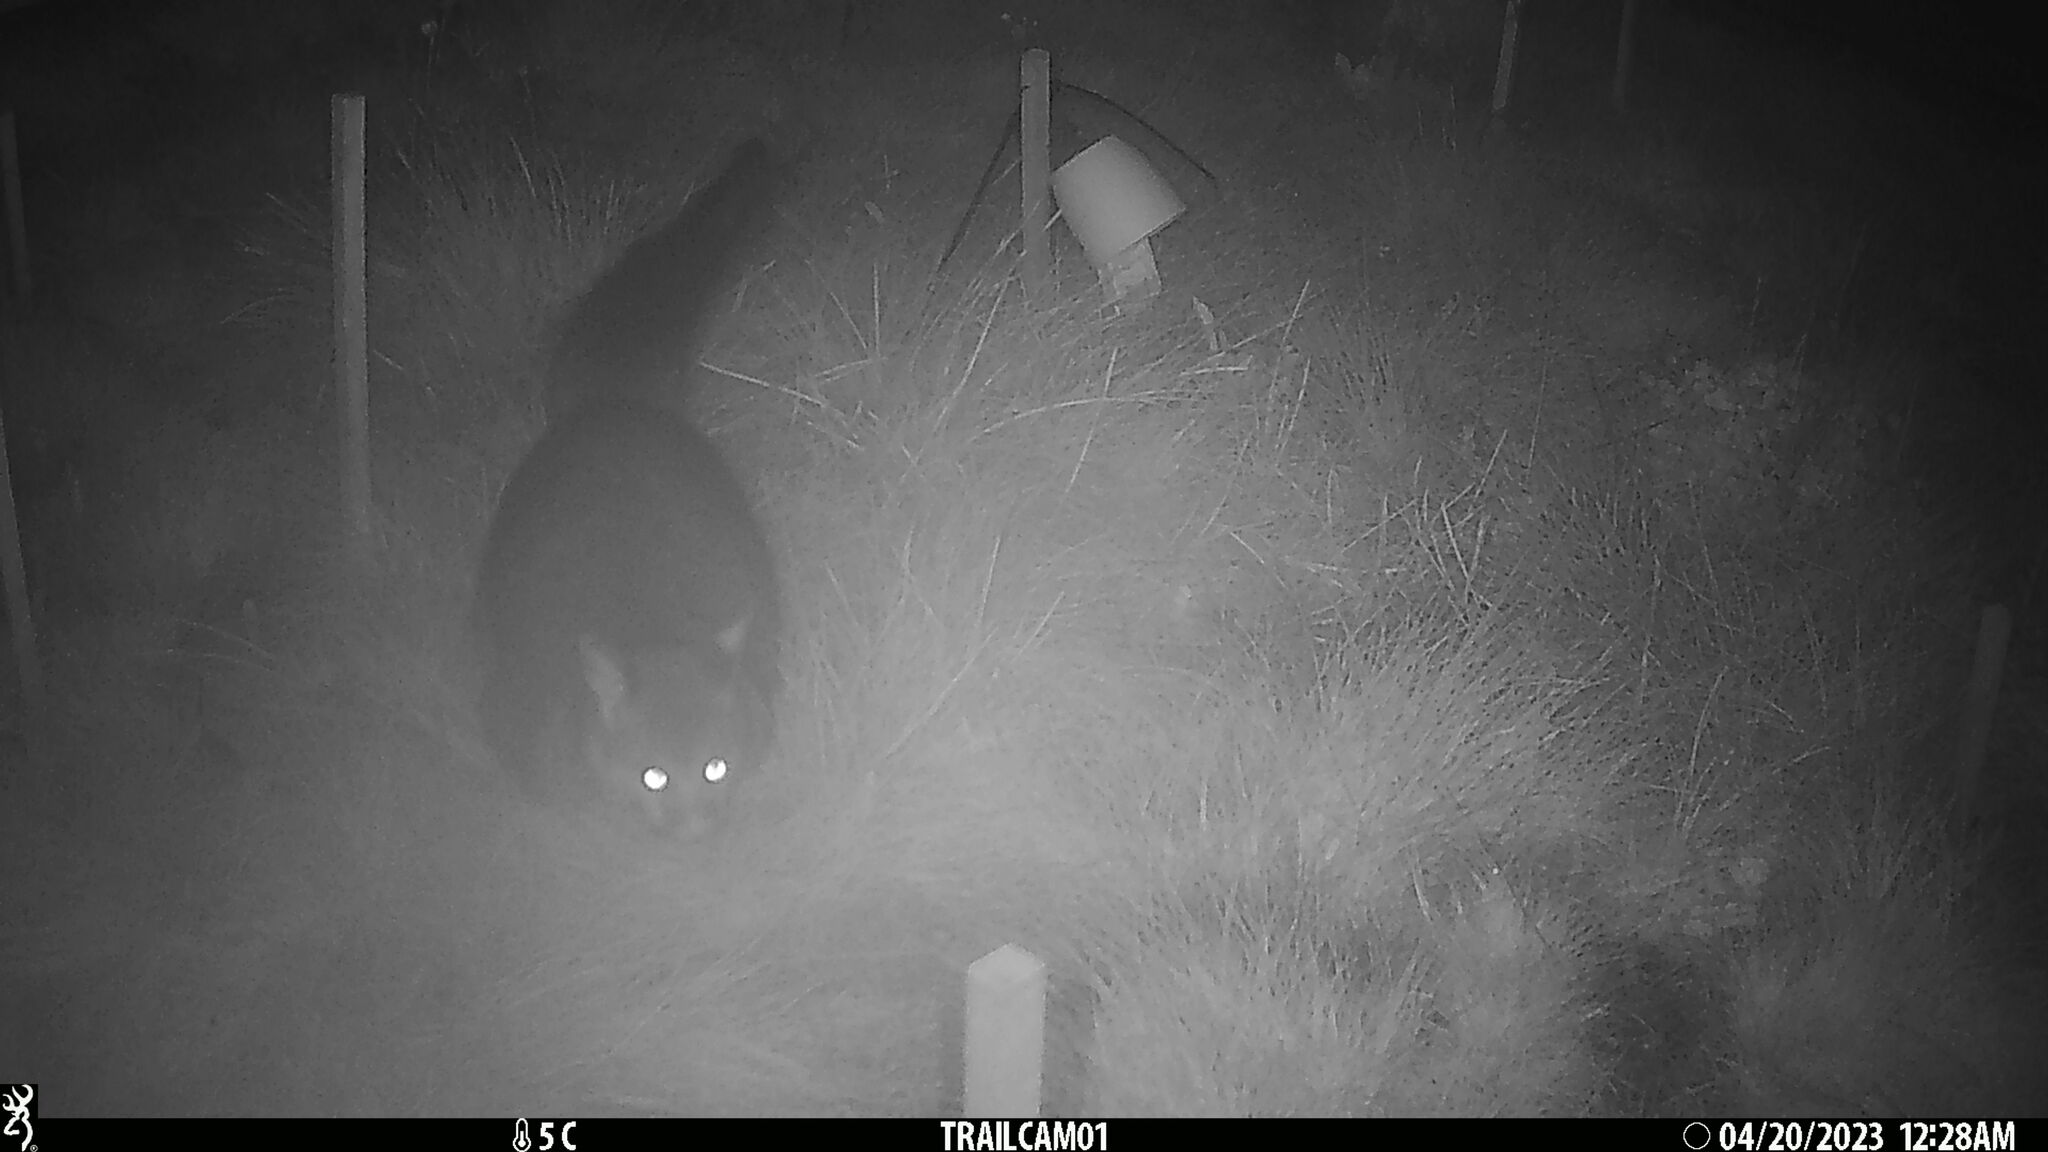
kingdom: Animalia
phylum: Chordata
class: Mammalia
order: Diprotodontia
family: Phalangeridae
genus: Trichosurus
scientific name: Trichosurus vulpecula
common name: Common brushtail
